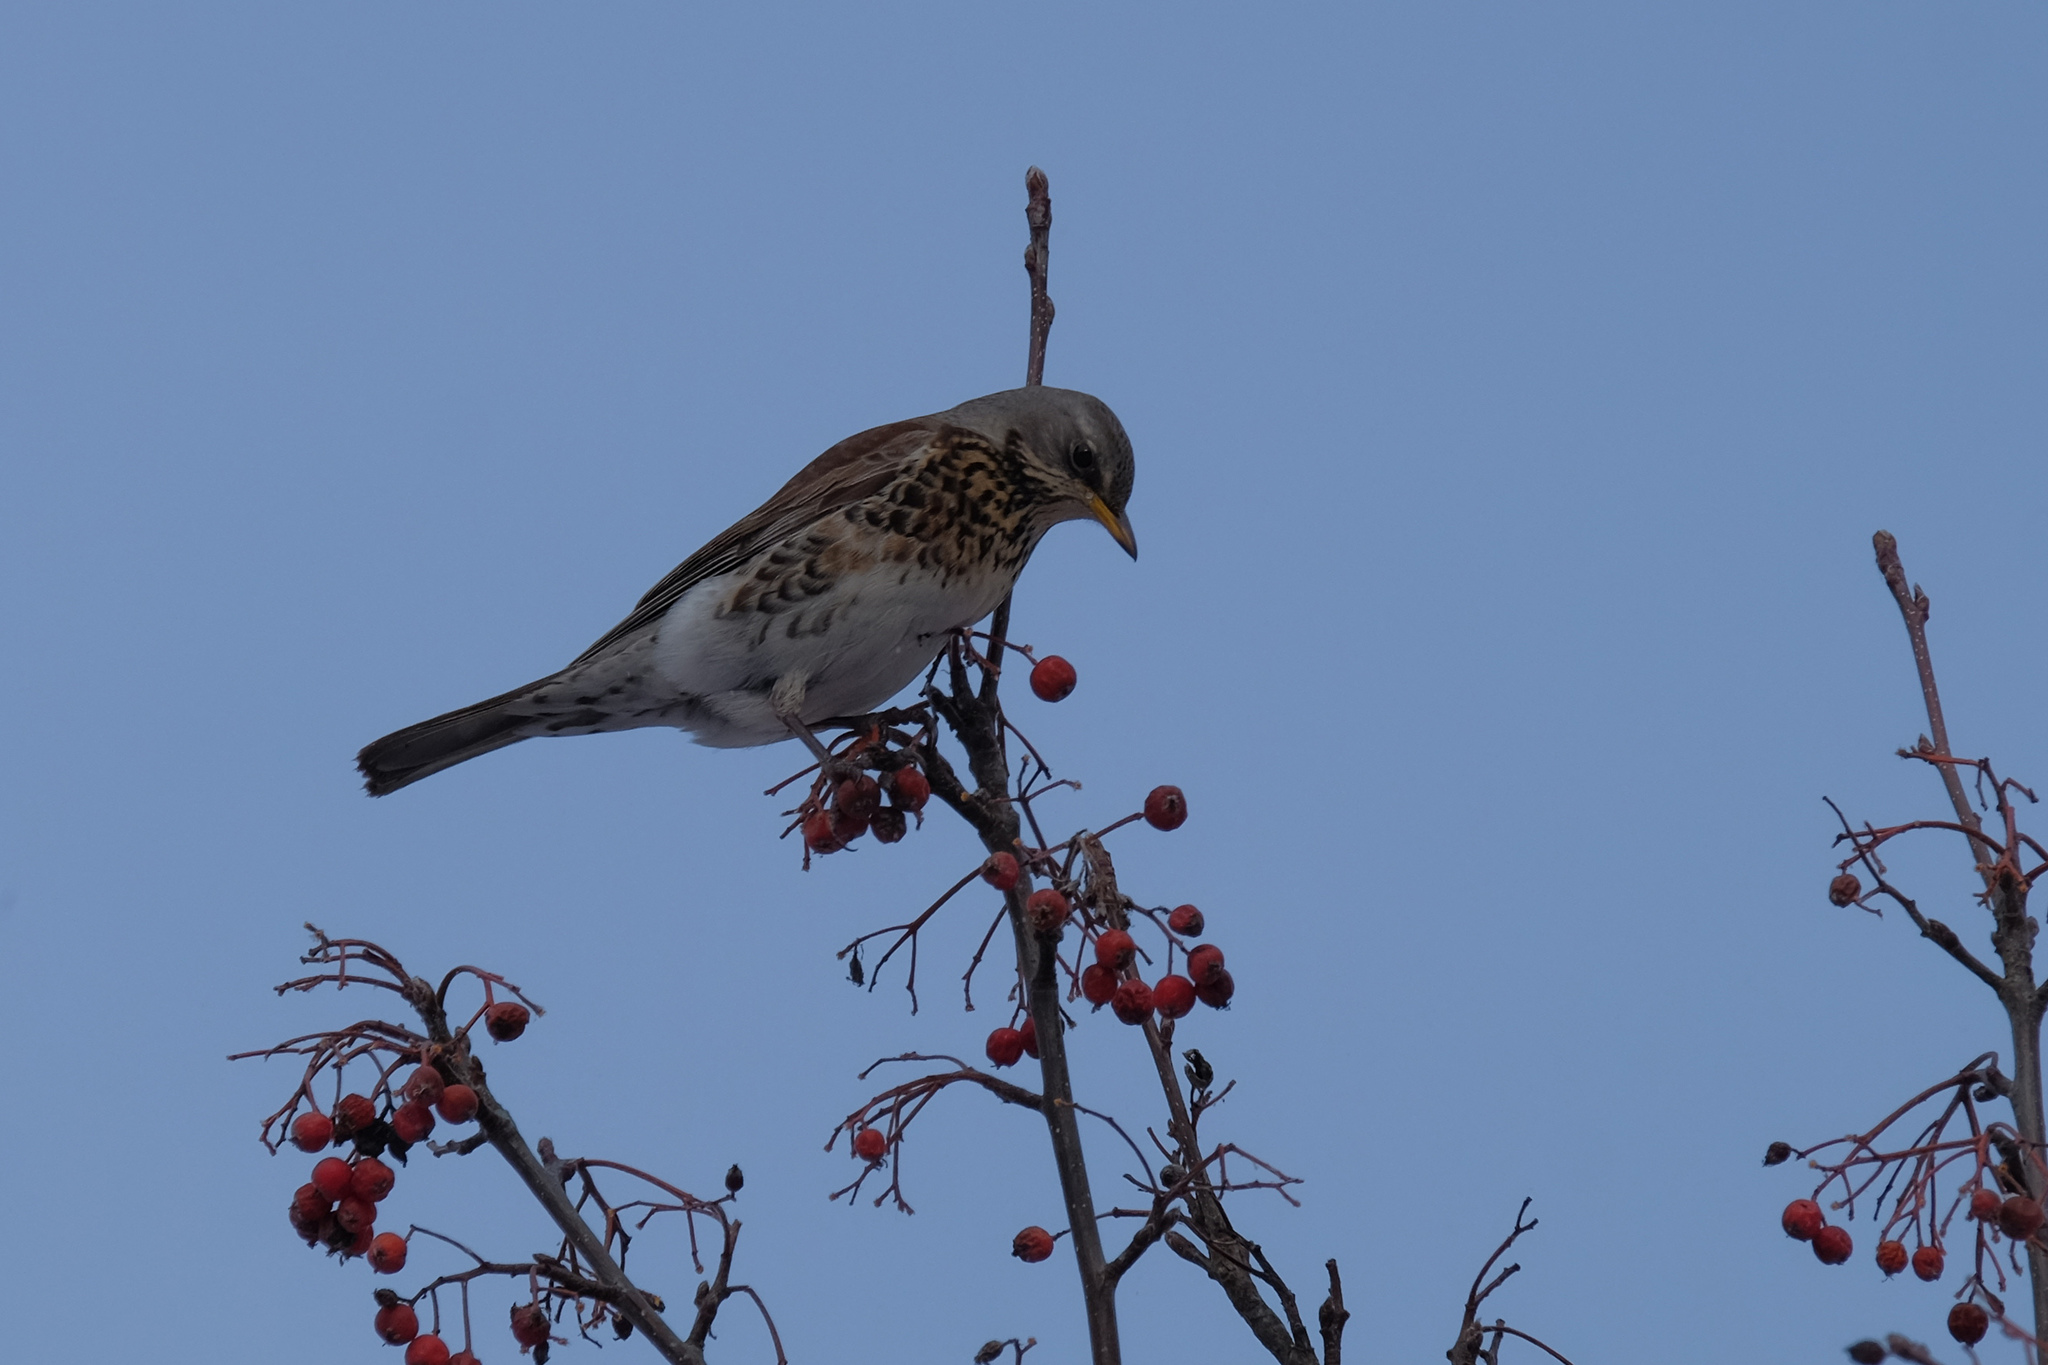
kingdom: Animalia
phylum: Chordata
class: Aves
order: Passeriformes
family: Turdidae
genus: Turdus
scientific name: Turdus pilaris
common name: Fieldfare
